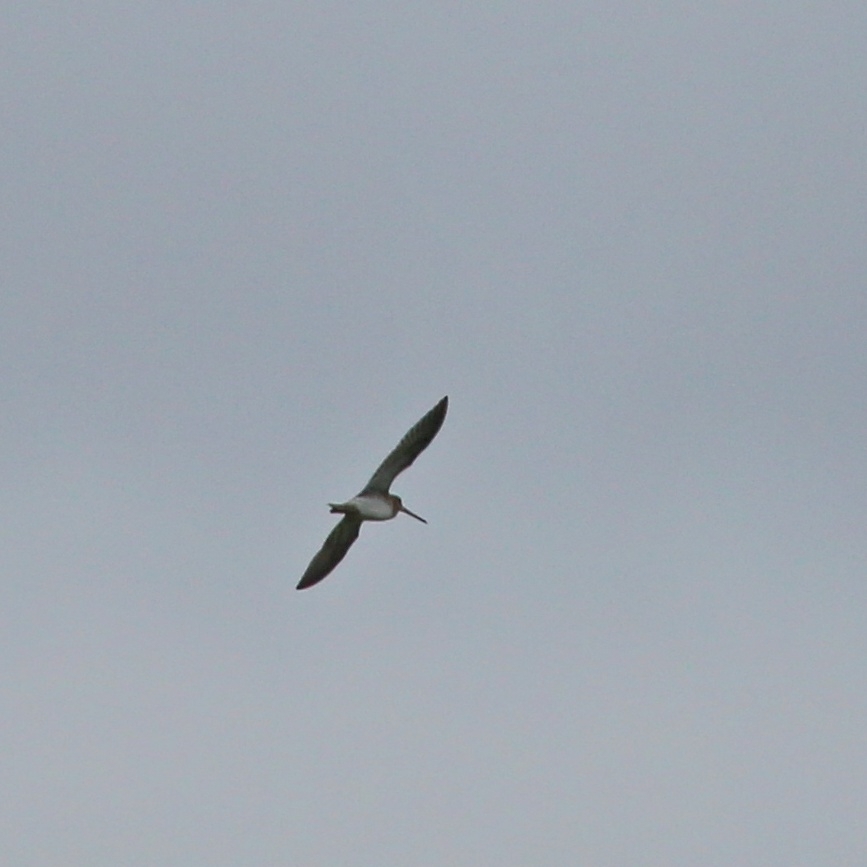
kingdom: Animalia
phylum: Chordata
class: Aves
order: Charadriiformes
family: Scolopacidae
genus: Gallinago
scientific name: Gallinago gallinago
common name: Common snipe
